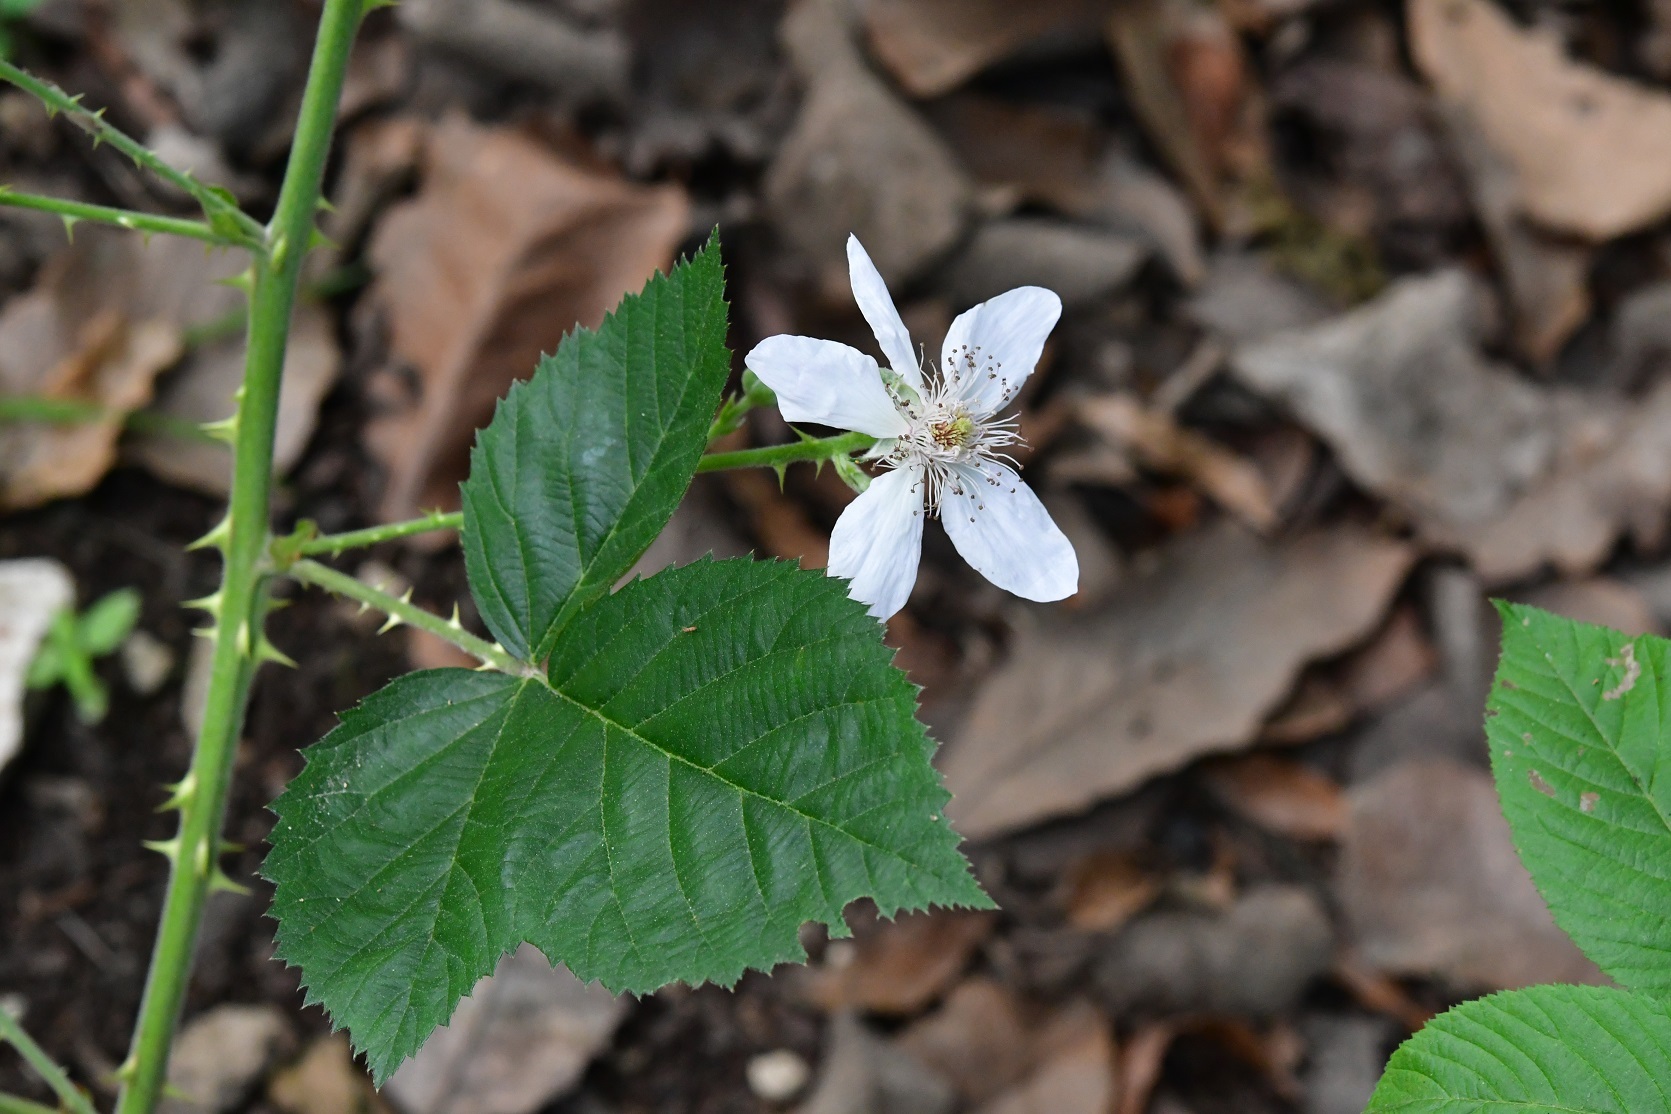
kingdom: Plantae
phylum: Tracheophyta
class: Magnoliopsida
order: Rosales
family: Rosaceae
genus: Rubus
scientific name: Rubus sapidus
